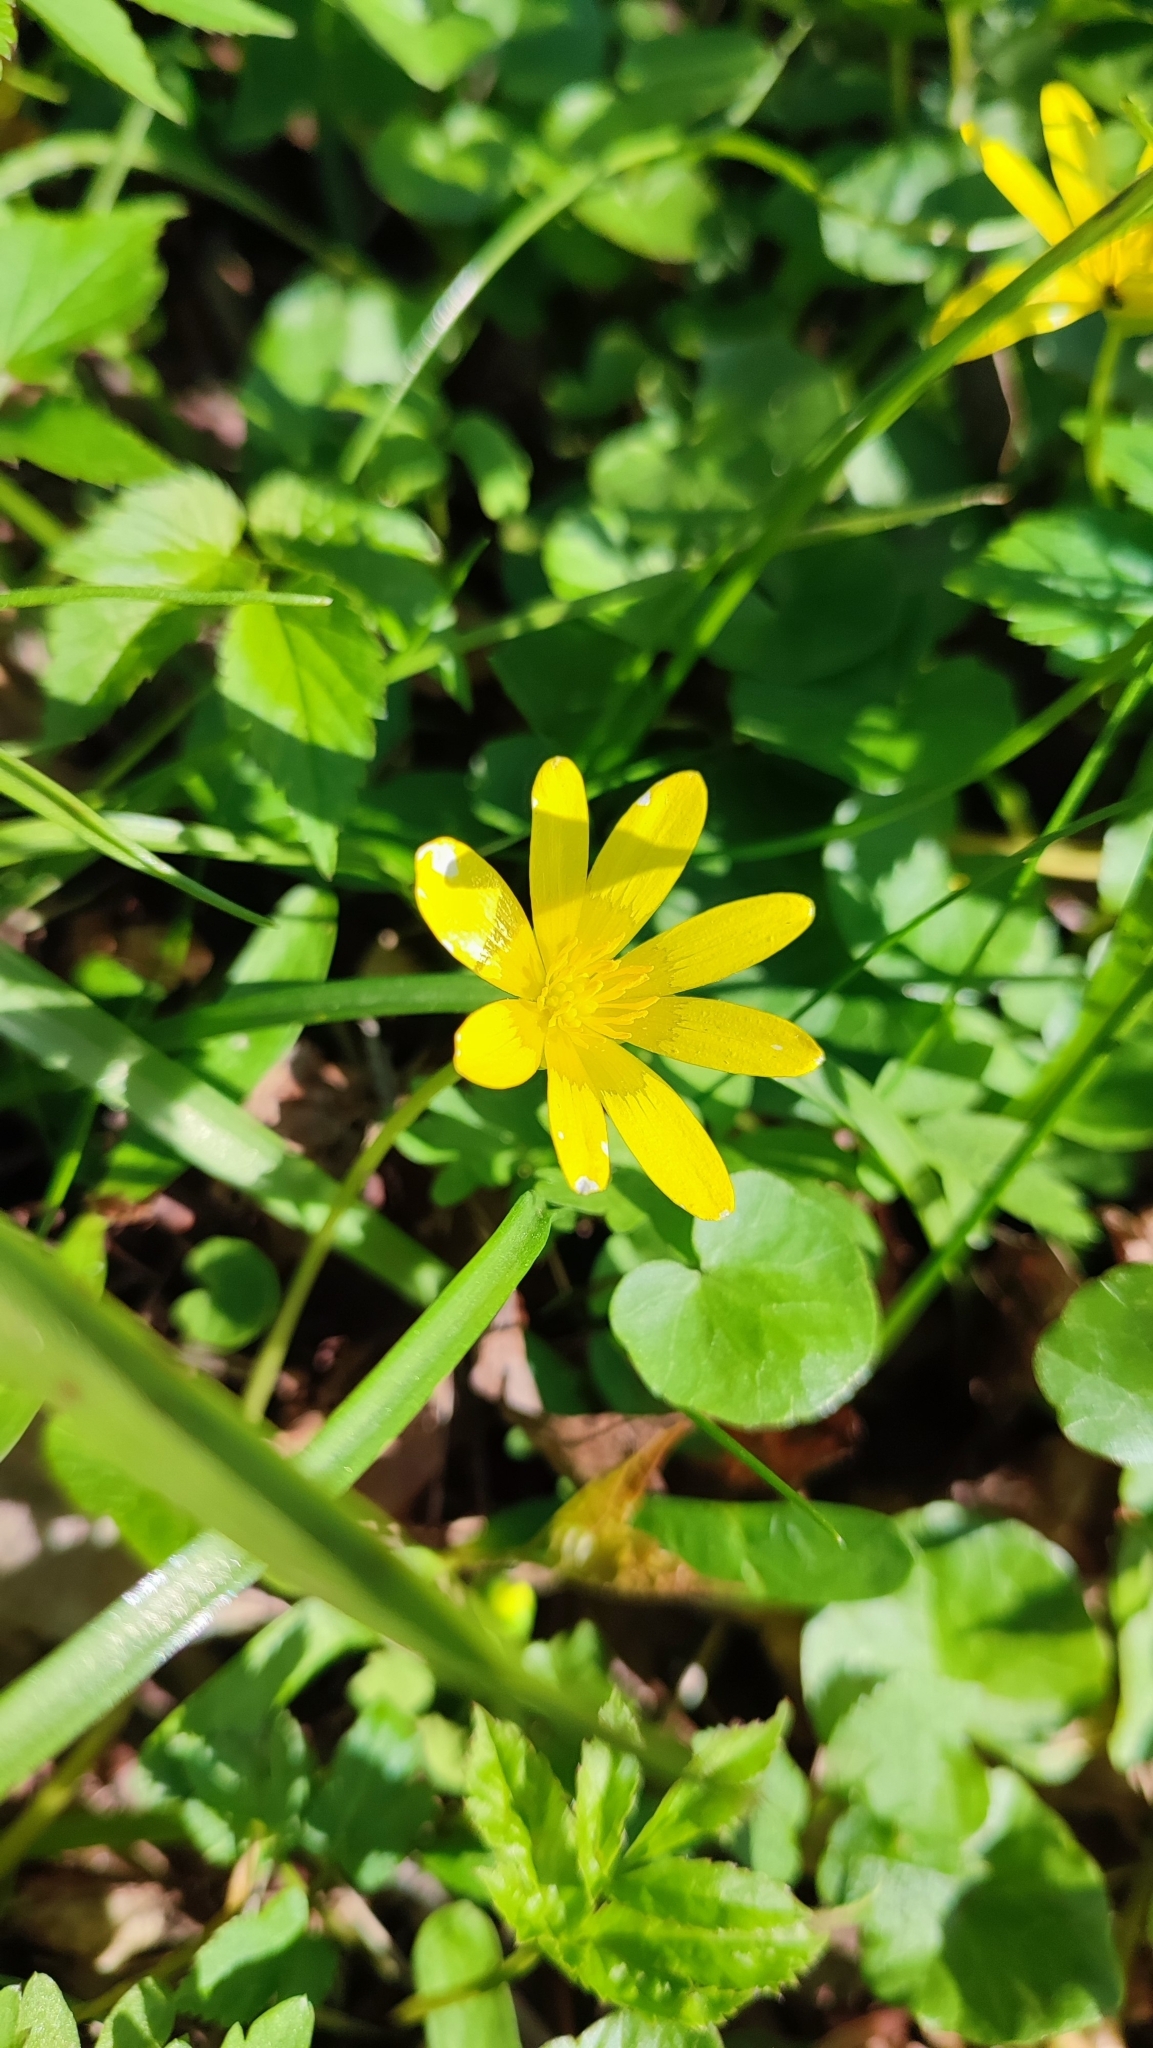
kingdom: Plantae
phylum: Tracheophyta
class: Magnoliopsida
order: Ranunculales
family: Ranunculaceae
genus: Ficaria
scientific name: Ficaria verna
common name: Lesser celandine
